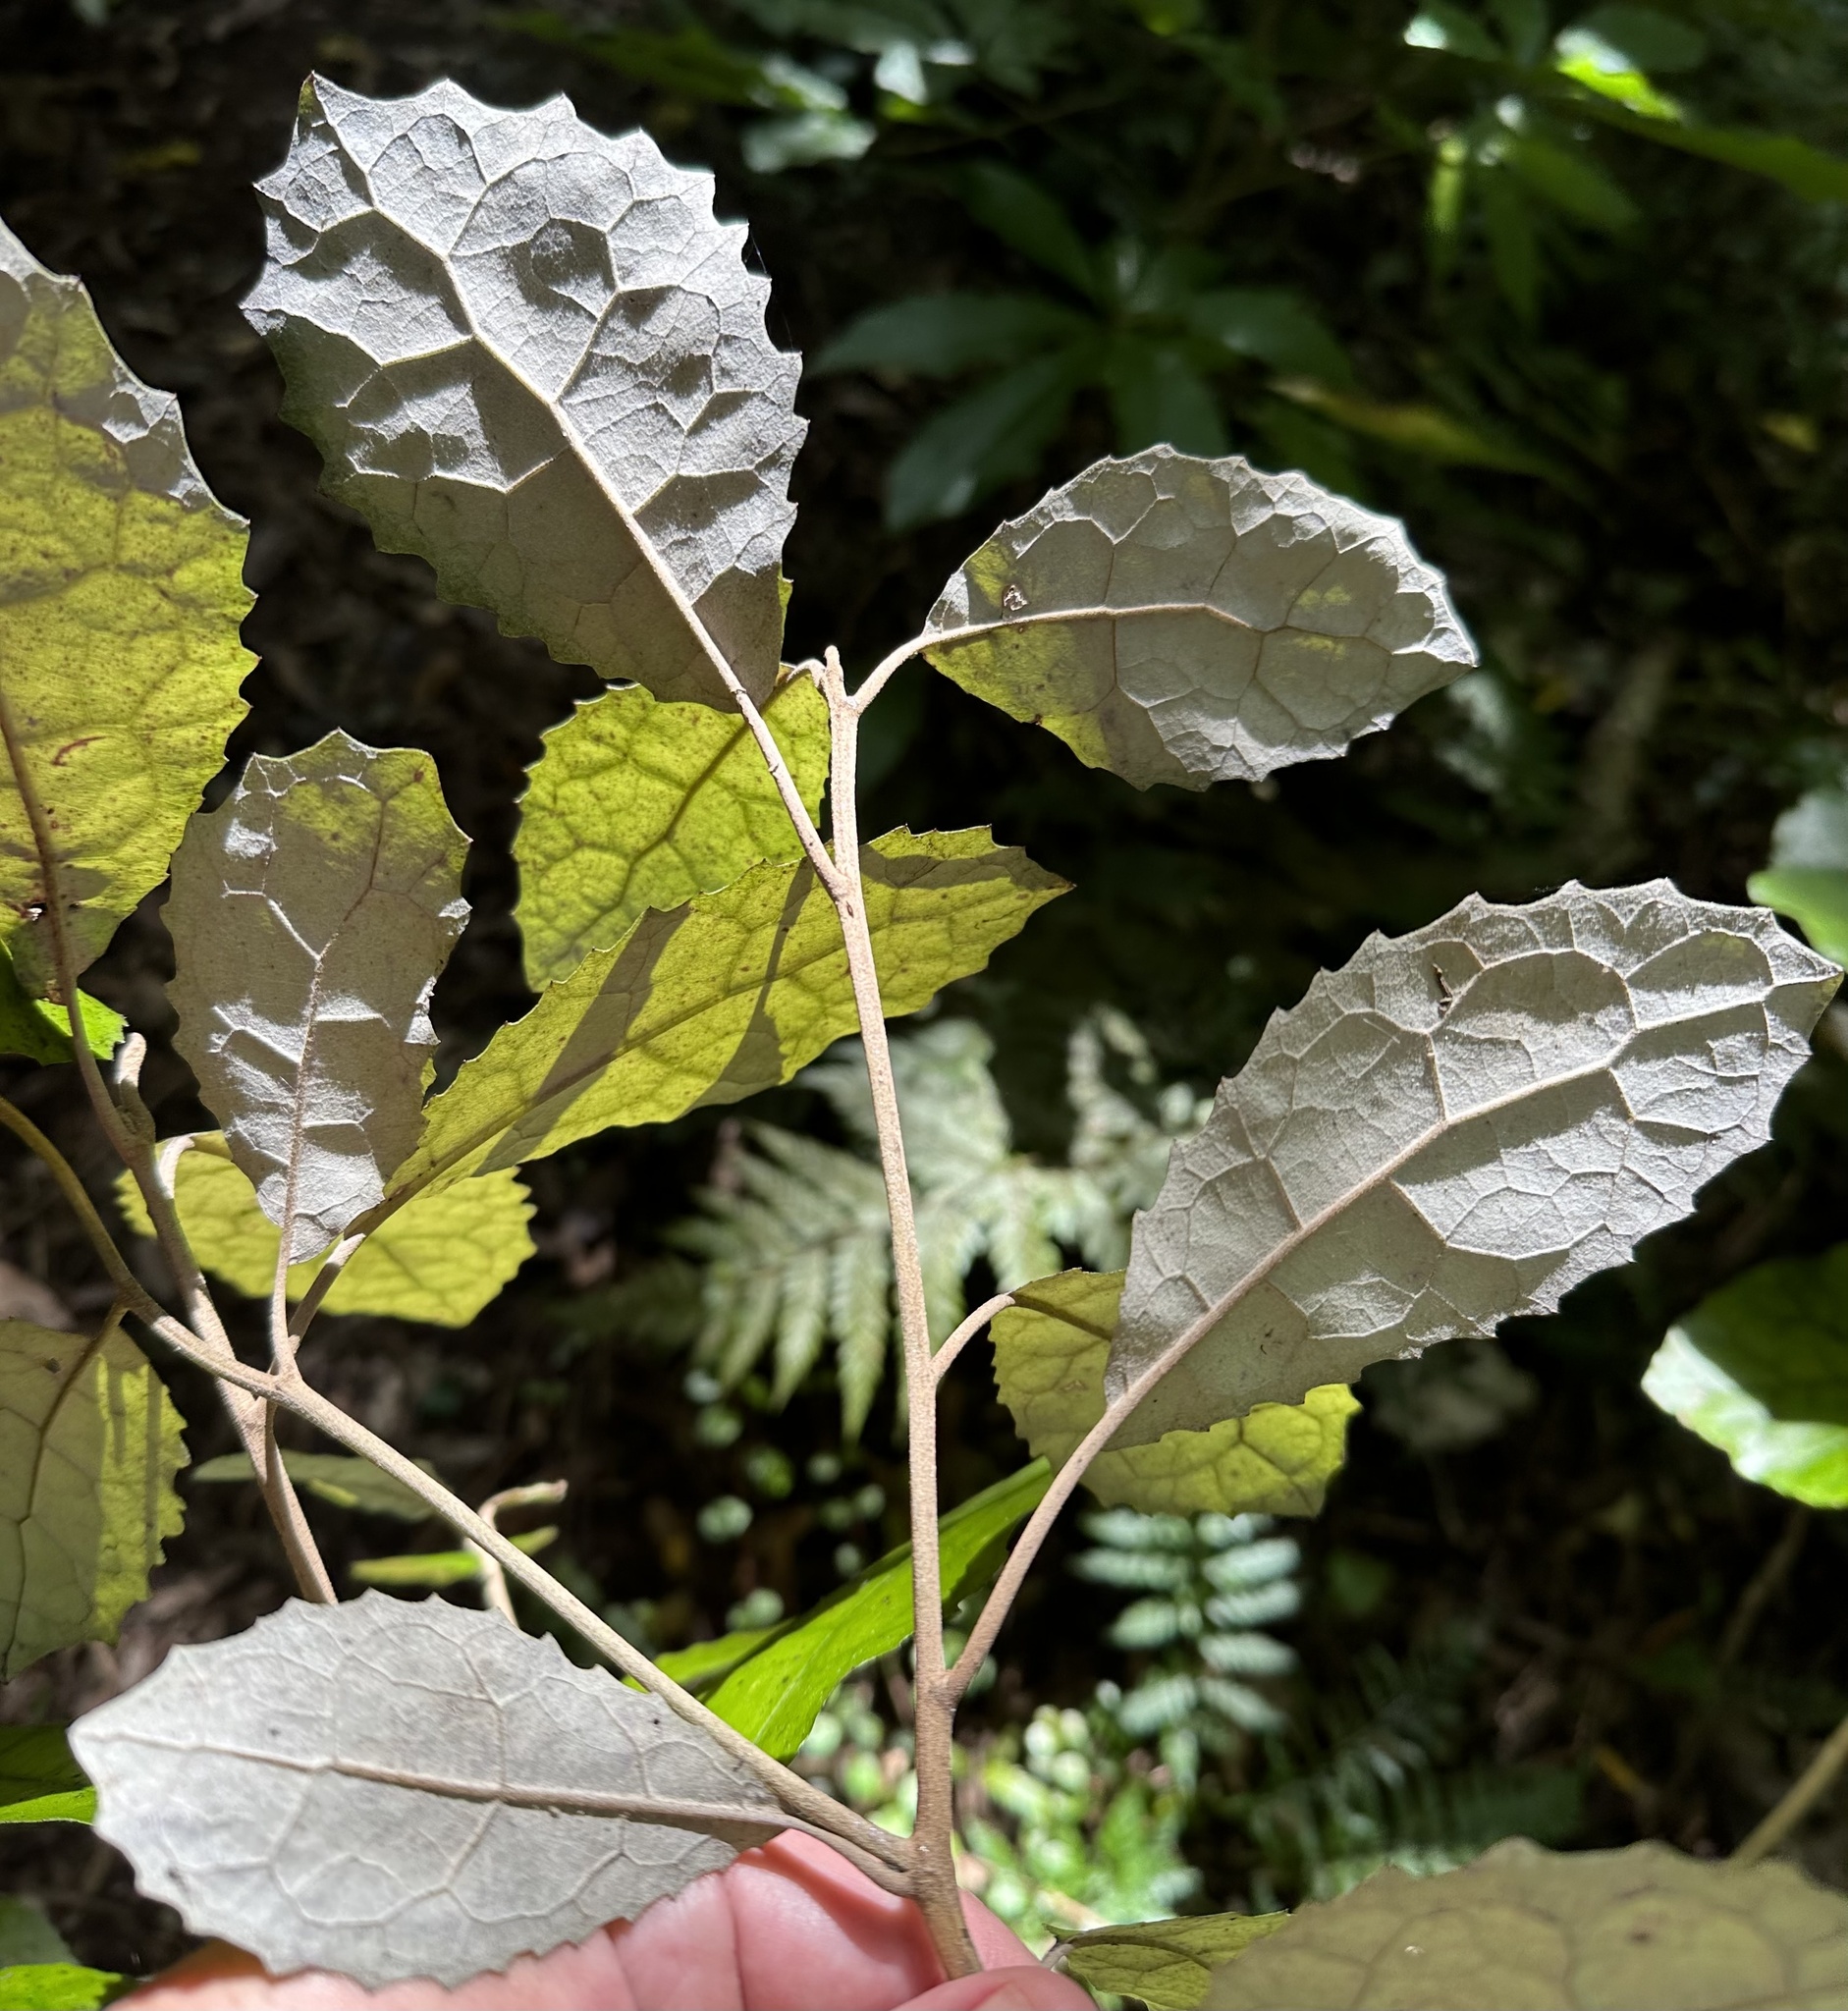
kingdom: Plantae
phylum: Tracheophyta
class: Magnoliopsida
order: Asterales
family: Asteraceae
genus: Olearia
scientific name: Olearia rani
